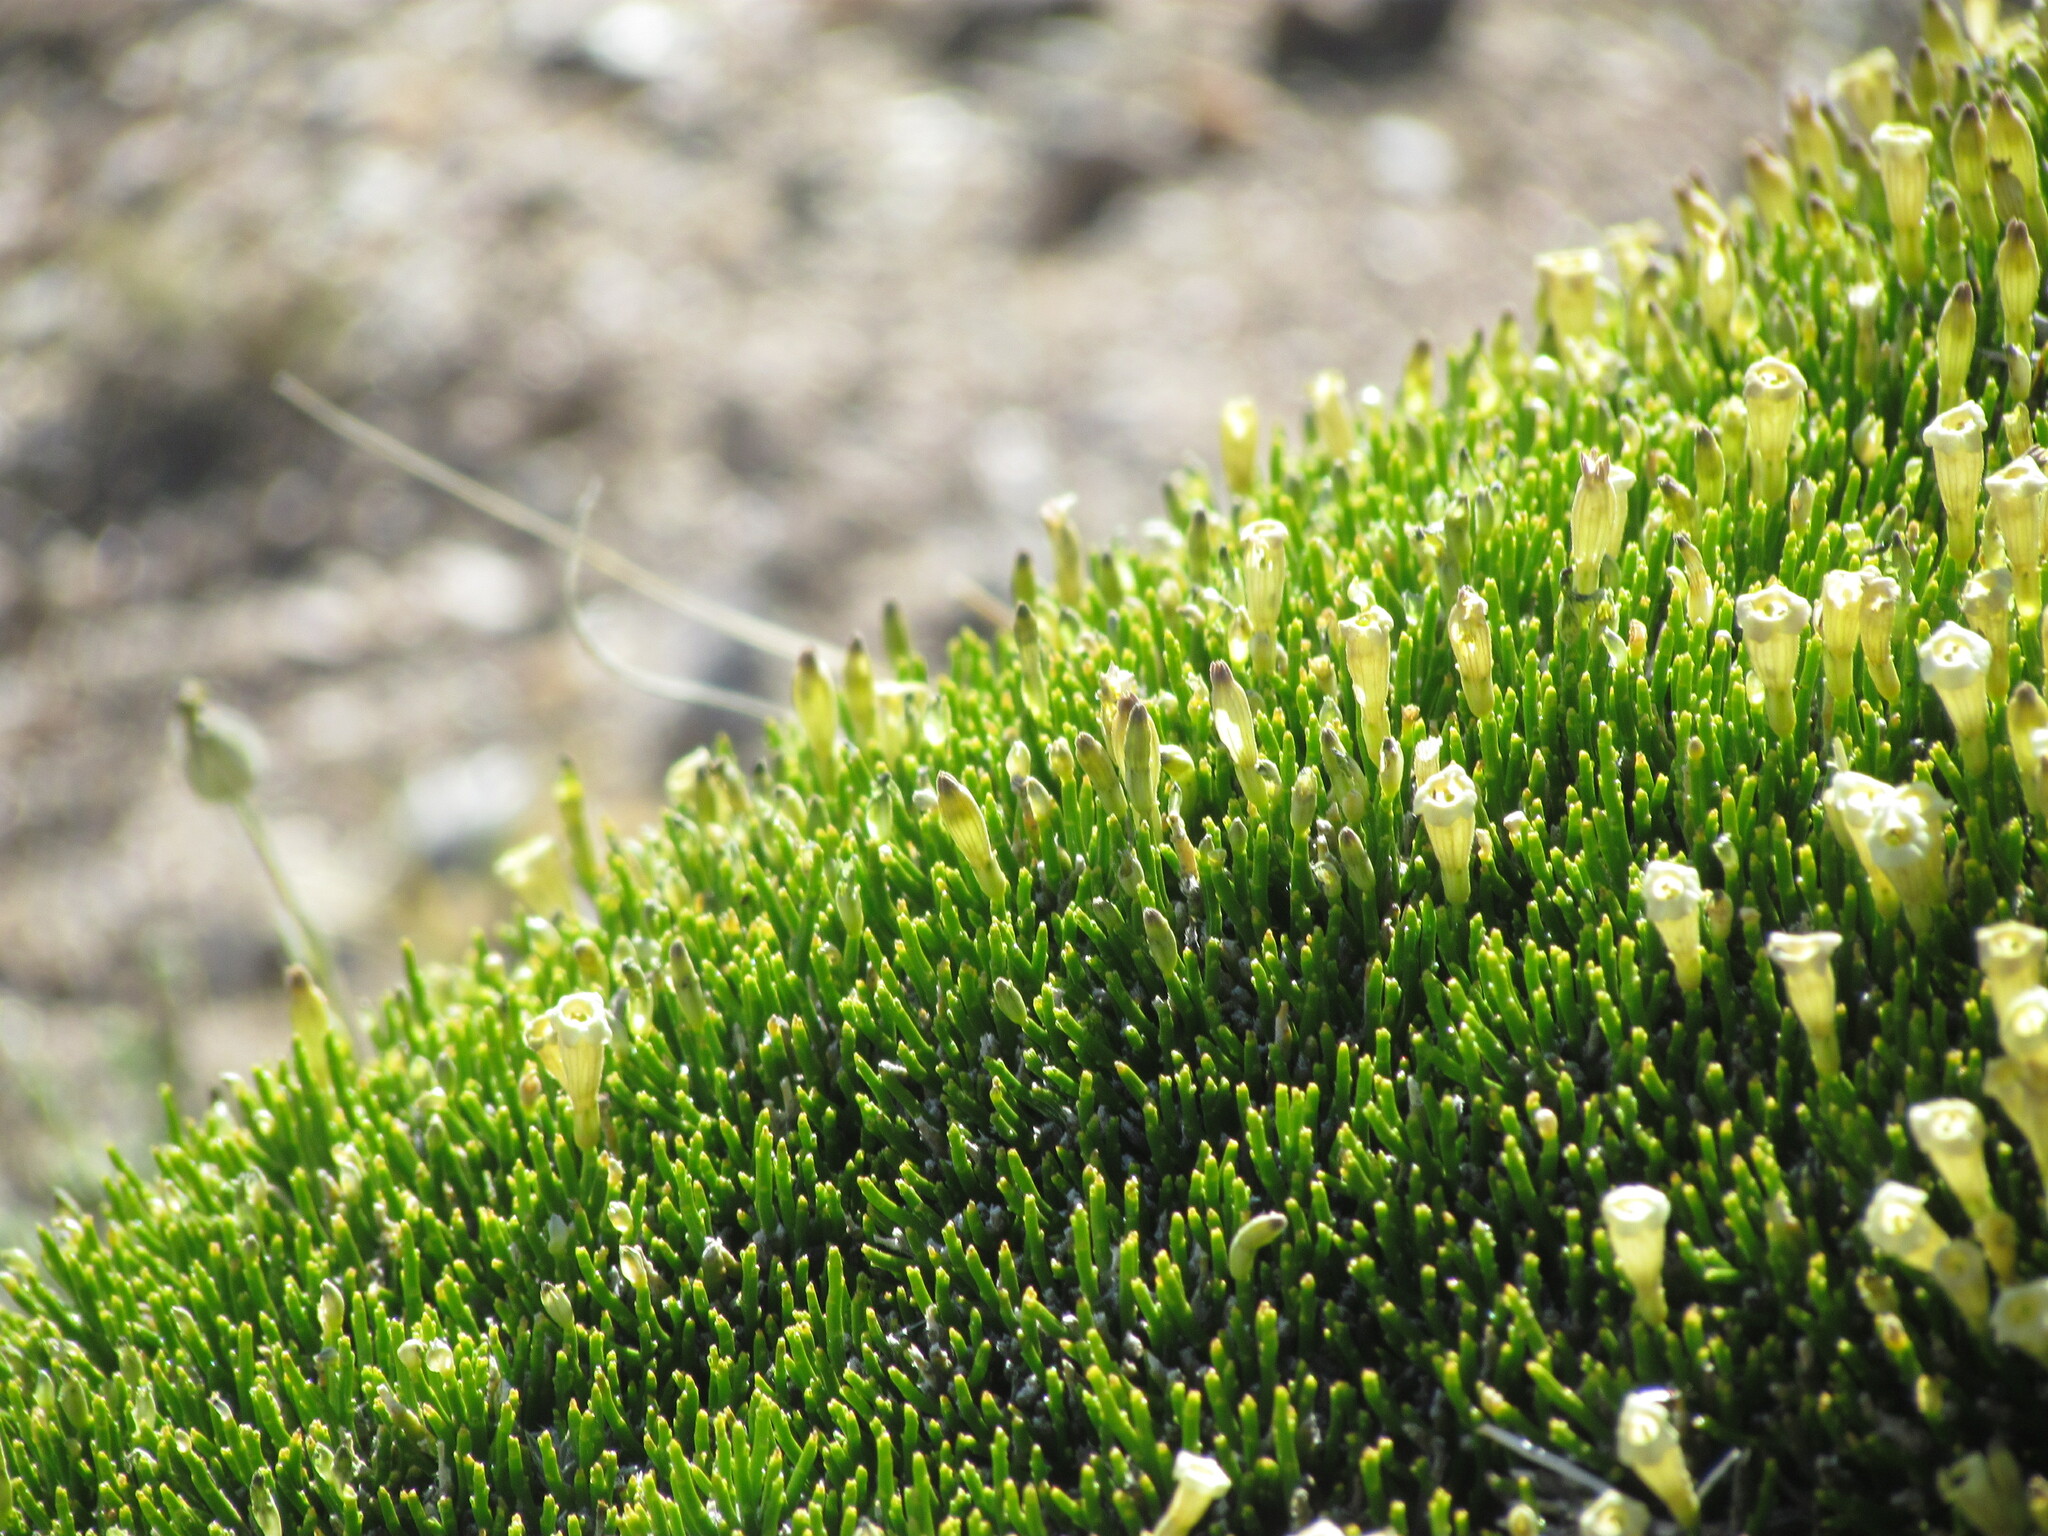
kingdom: Plantae
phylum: Tracheophyta
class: Magnoliopsida
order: Solanales
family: Solanaceae
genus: Fabiana
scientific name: Fabiana nana
